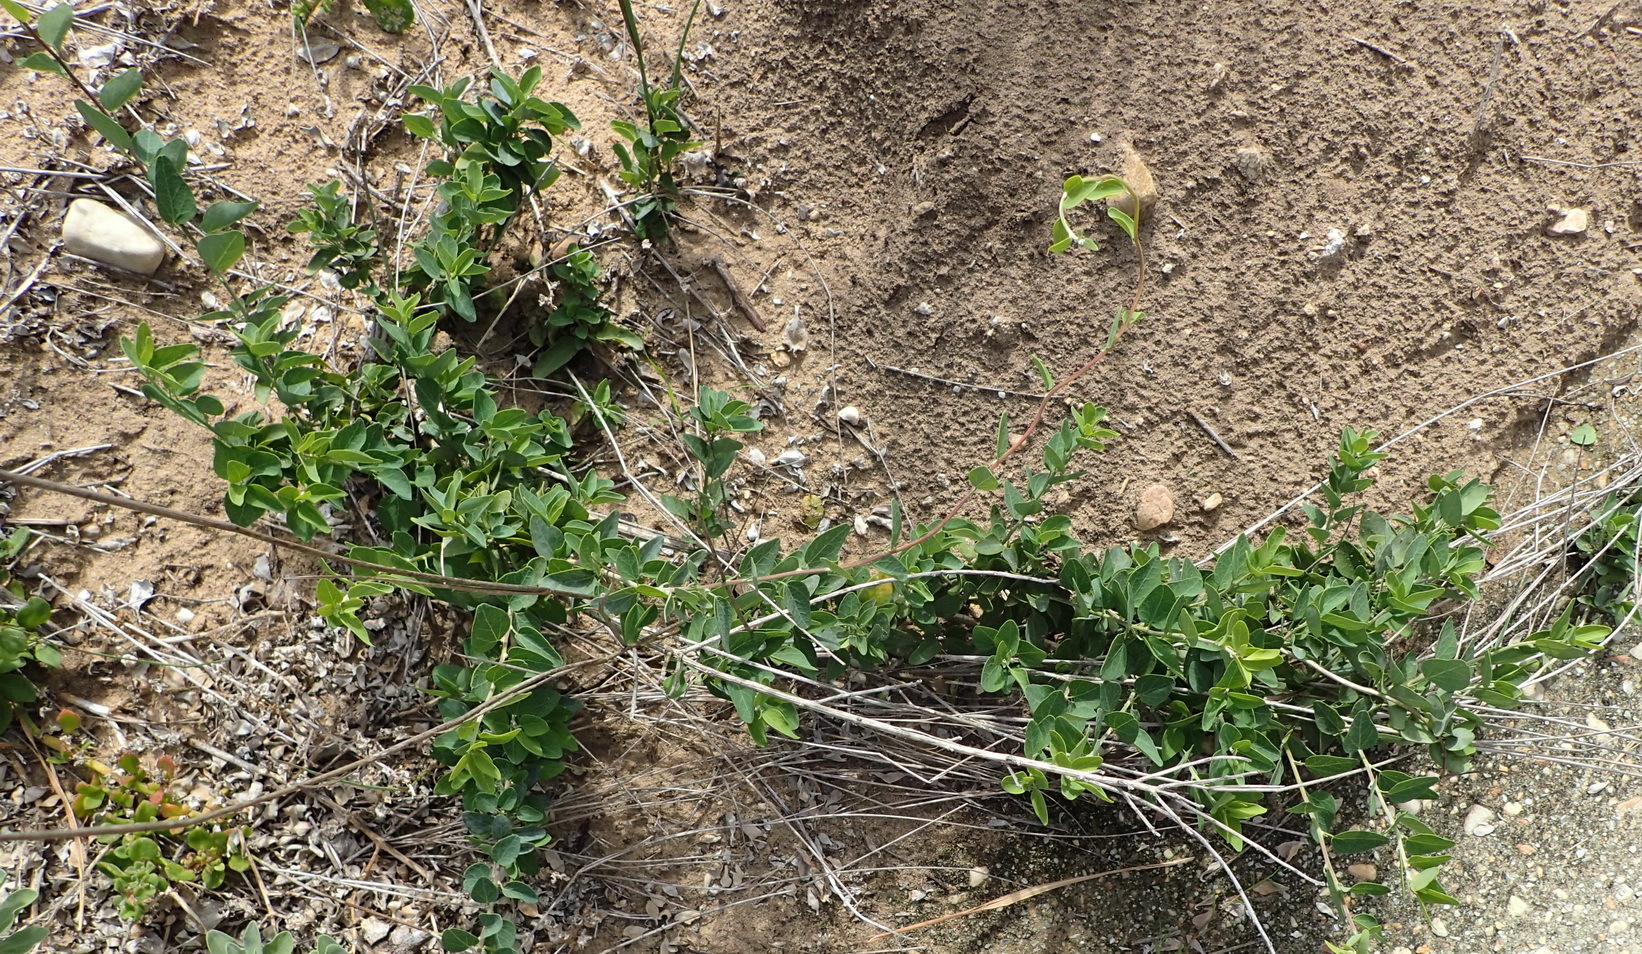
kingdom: Plantae
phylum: Tracheophyta
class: Magnoliopsida
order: Ranunculales
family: Menispermaceae
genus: Cissampelos
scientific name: Cissampelos capensis
